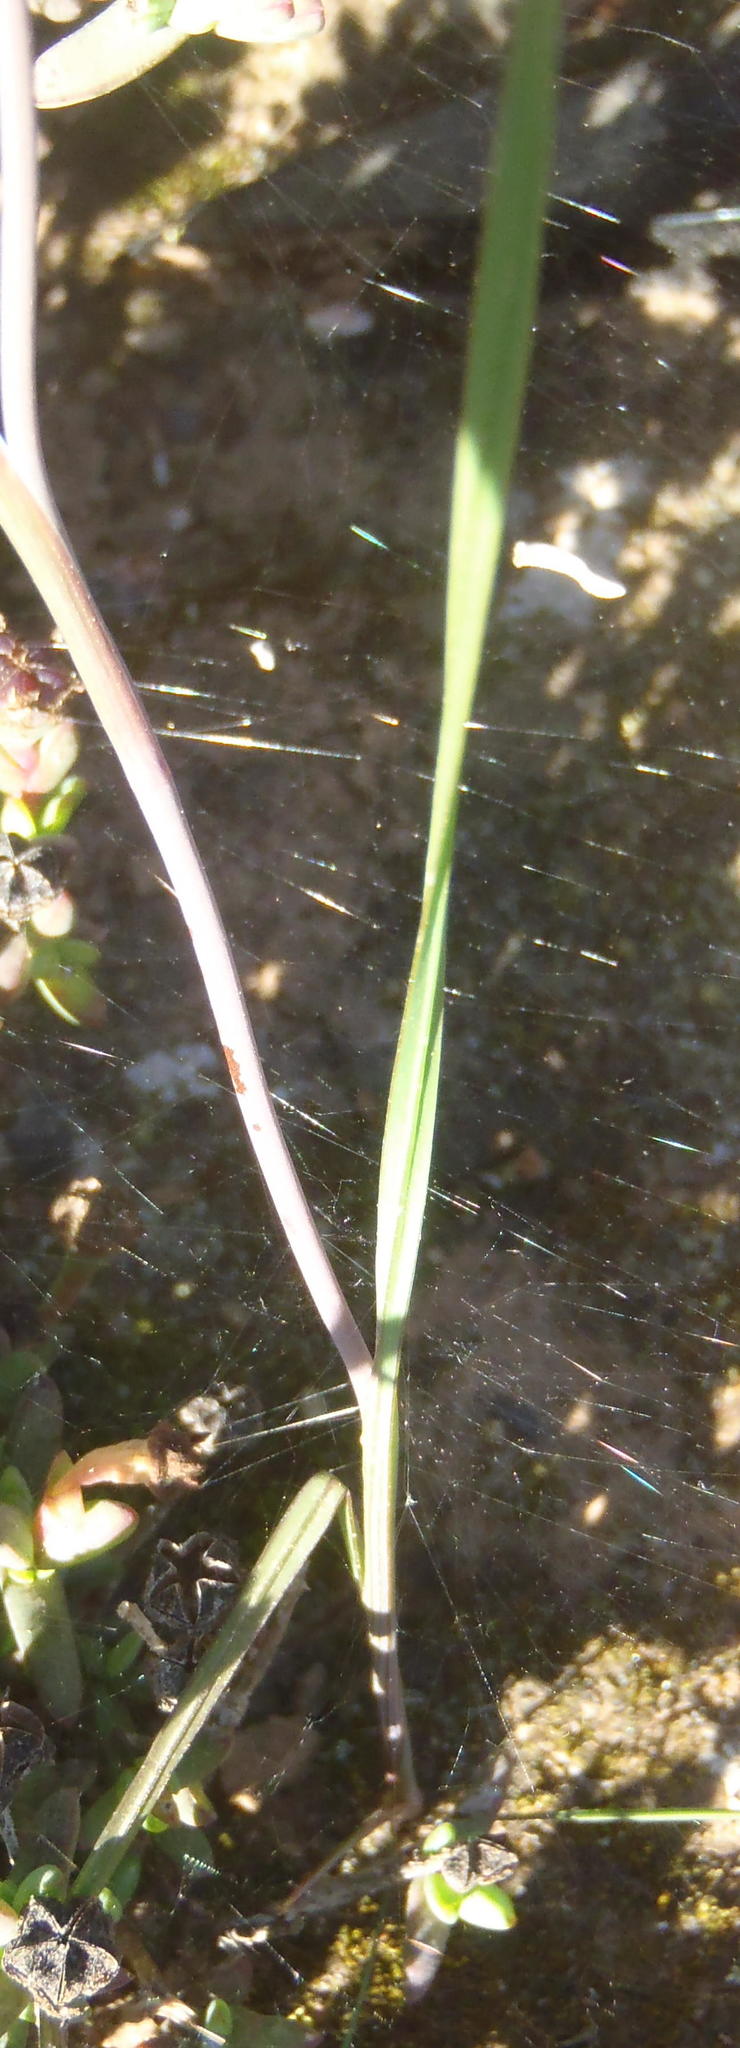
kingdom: Plantae
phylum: Tracheophyta
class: Liliopsida
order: Asparagales
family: Iridaceae
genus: Gladiolus
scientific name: Gladiolus permeabilis
